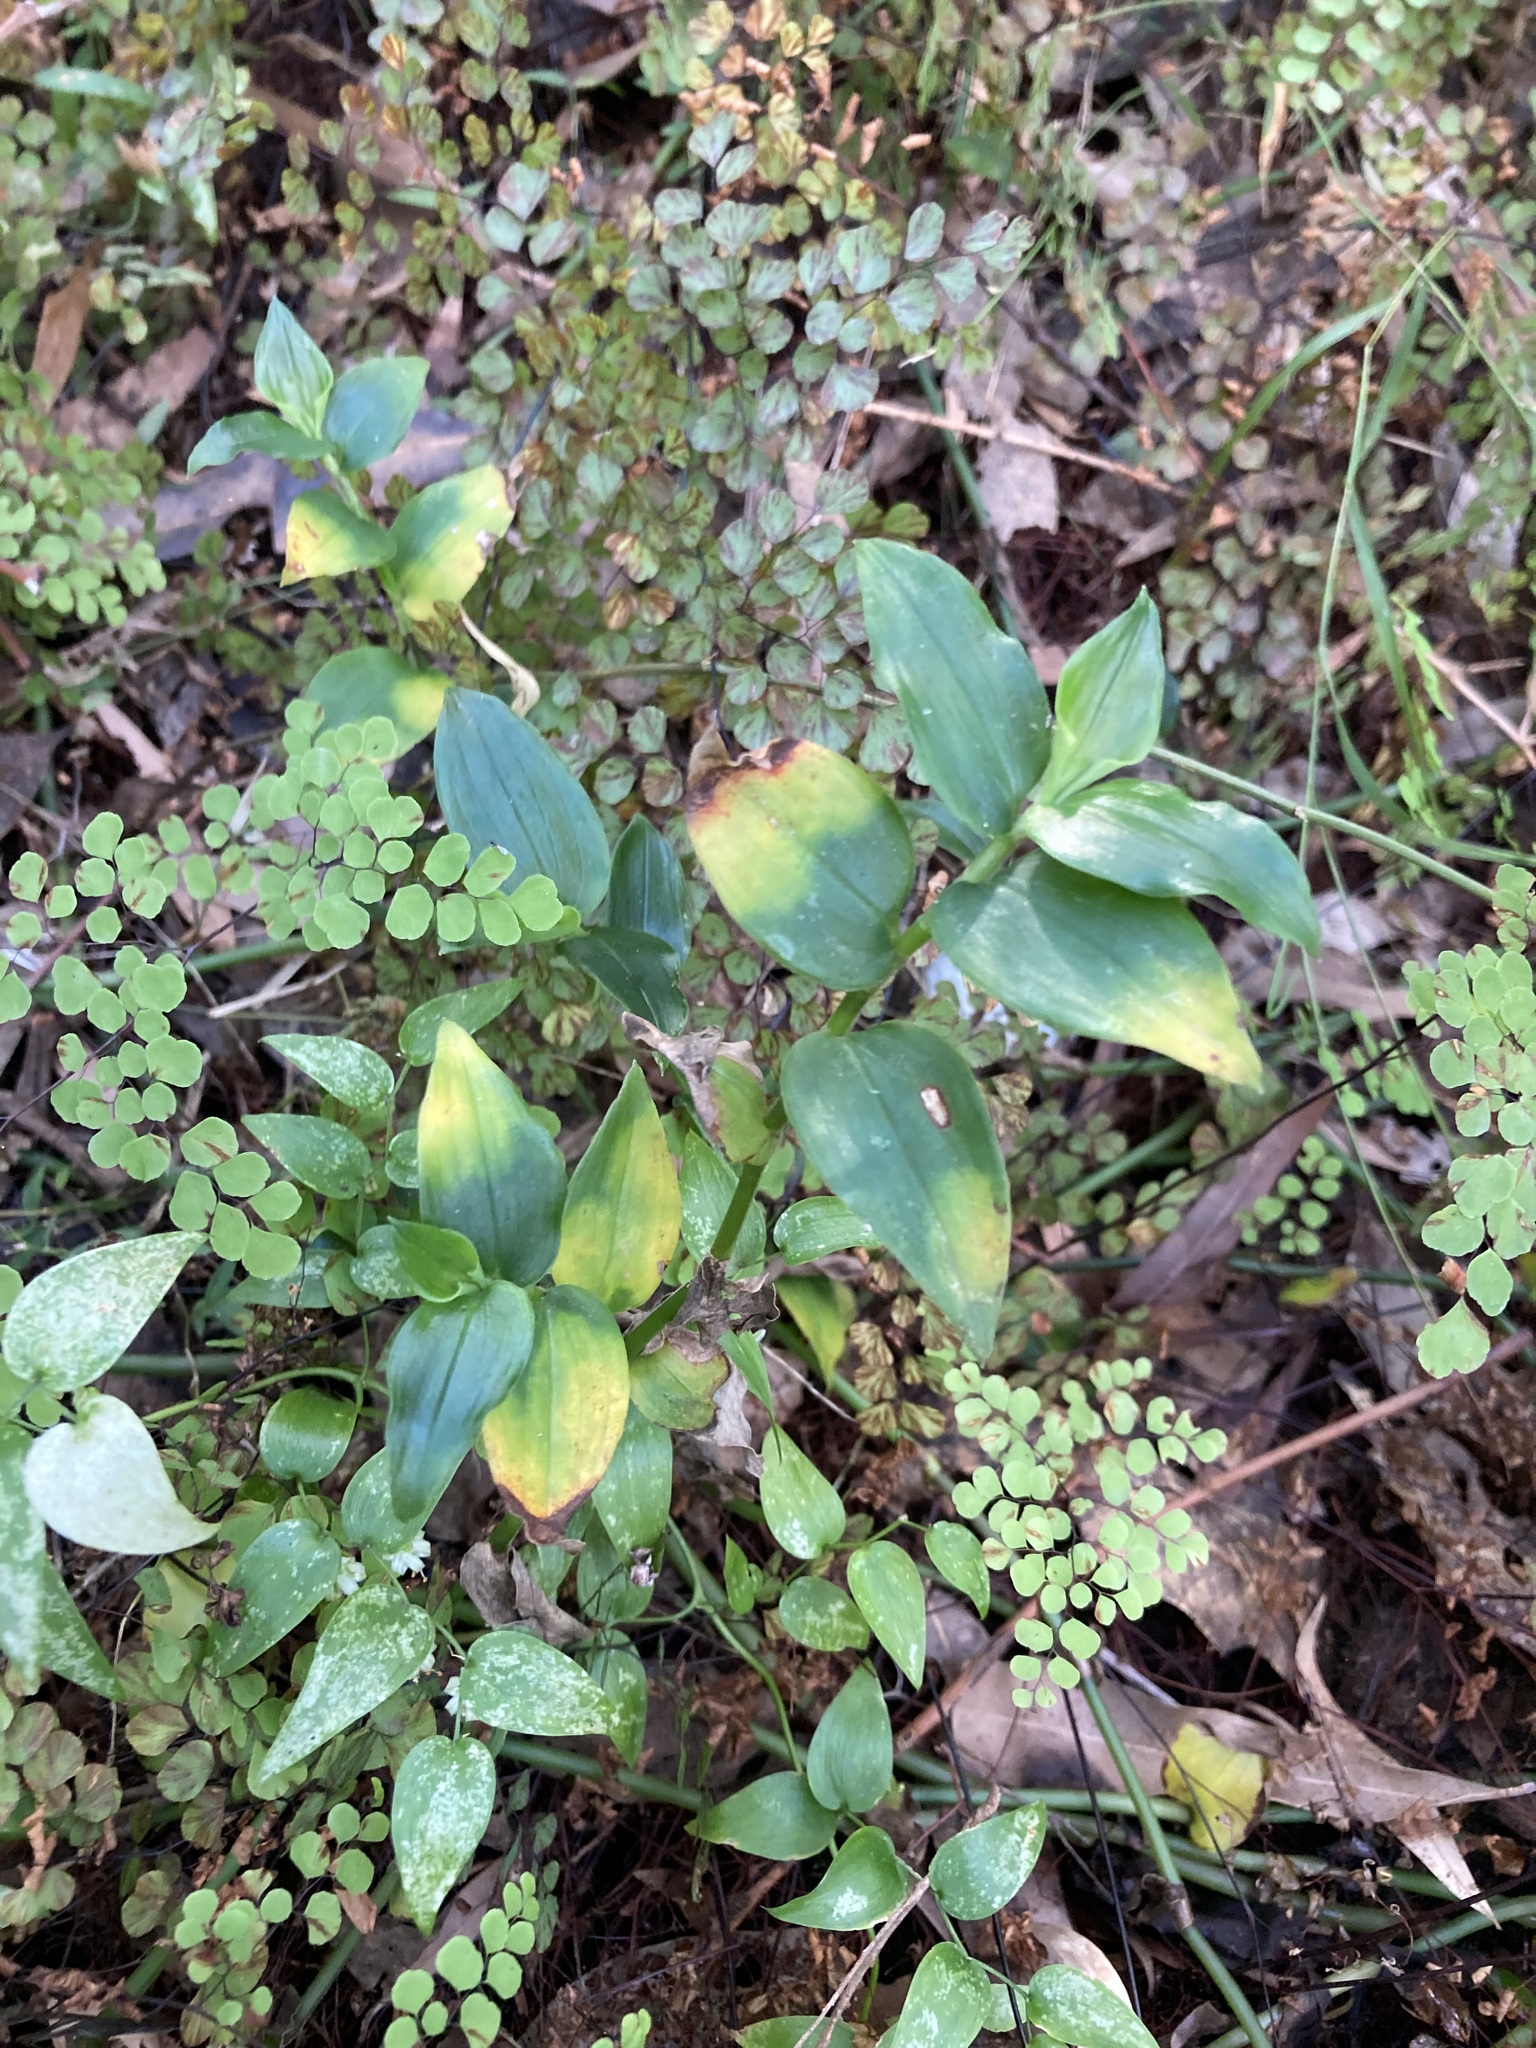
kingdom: Fungi
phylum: Basidiomycota
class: Exobasidiomycetes
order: Exobasidiales
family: Brachybasidiaceae
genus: Kordyana
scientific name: Kordyana brasiliensis
